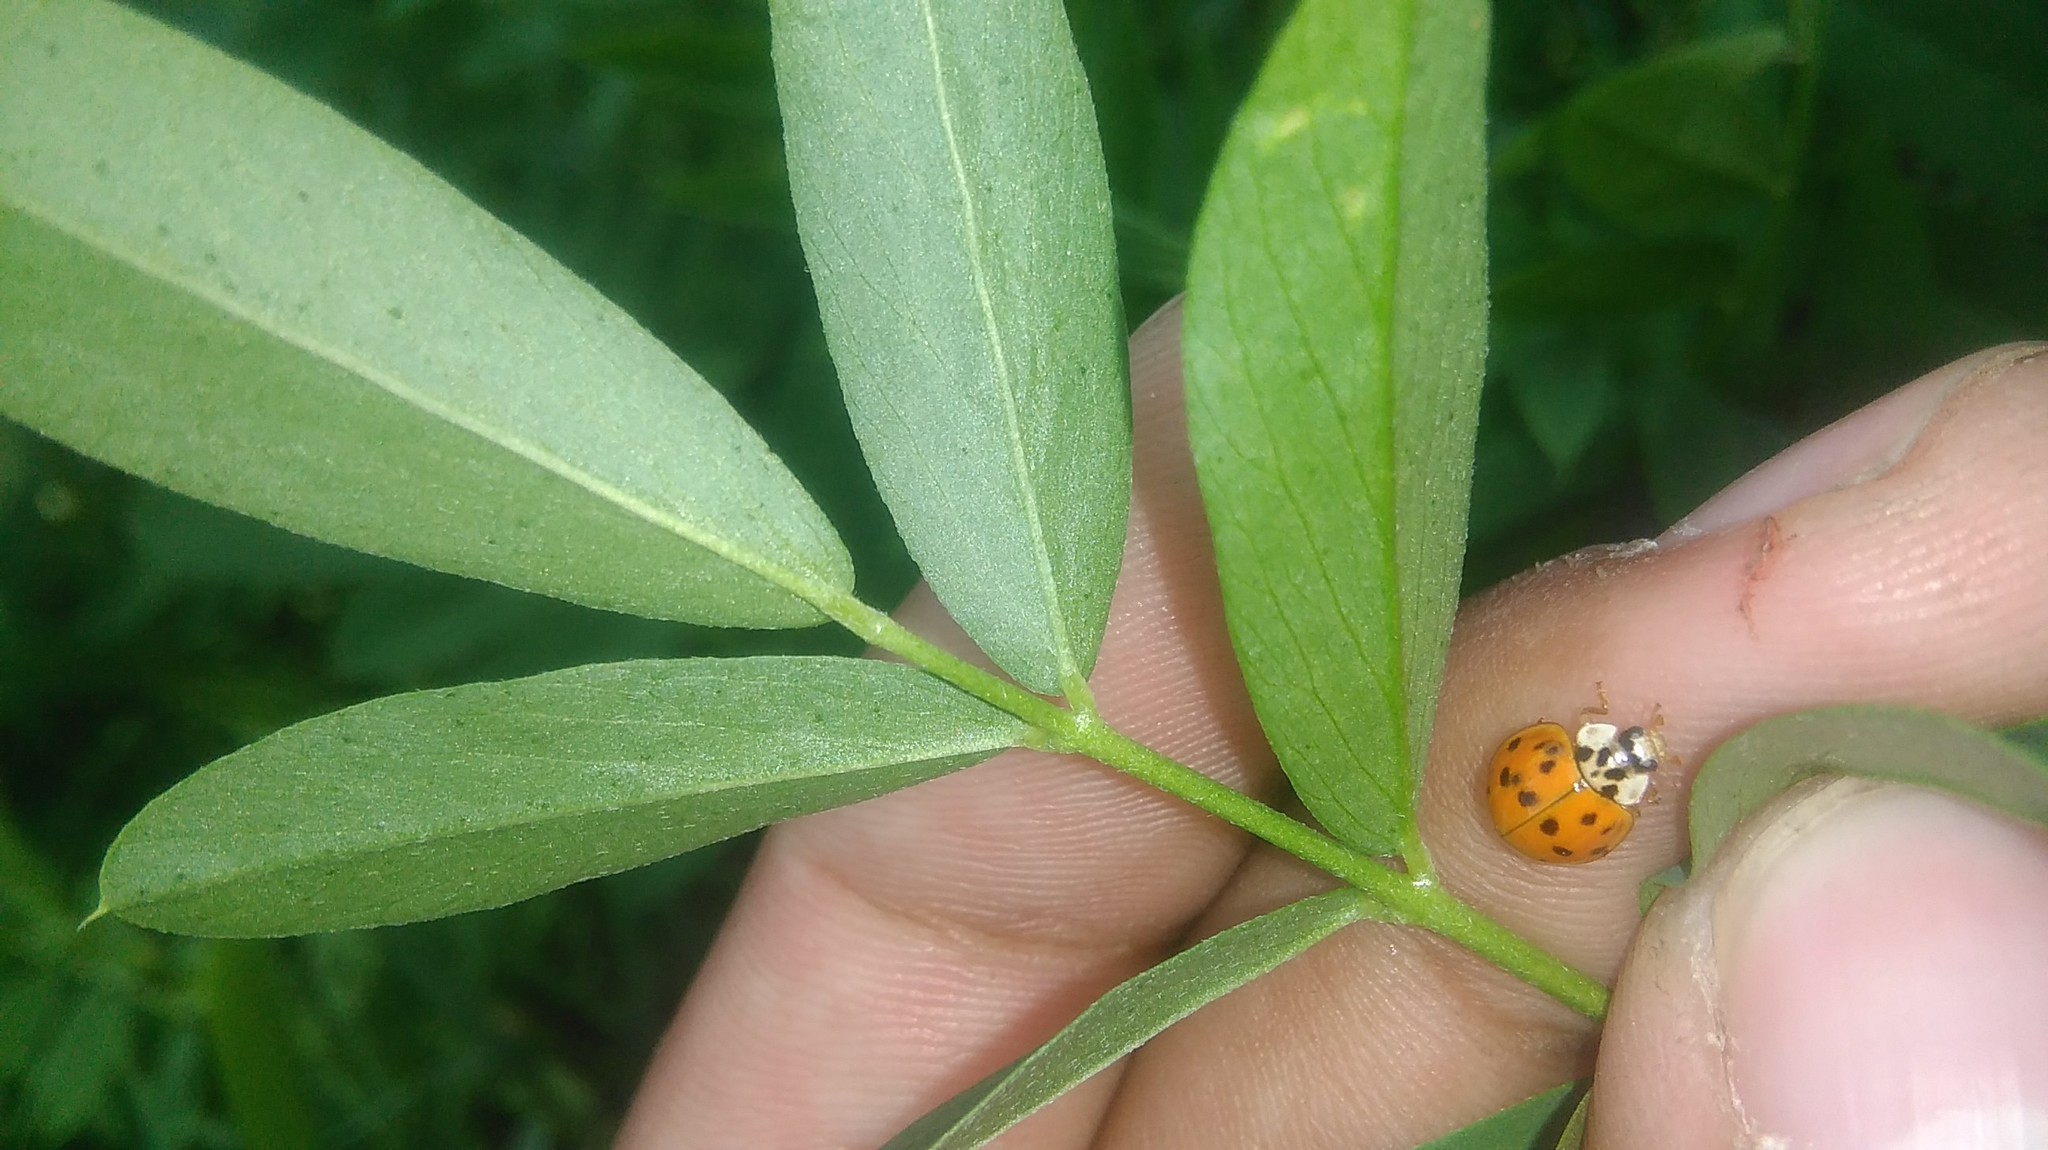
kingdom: Animalia
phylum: Arthropoda
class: Insecta
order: Coleoptera
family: Coccinellidae
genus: Harmonia
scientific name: Harmonia axyridis
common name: Harlequin ladybird
